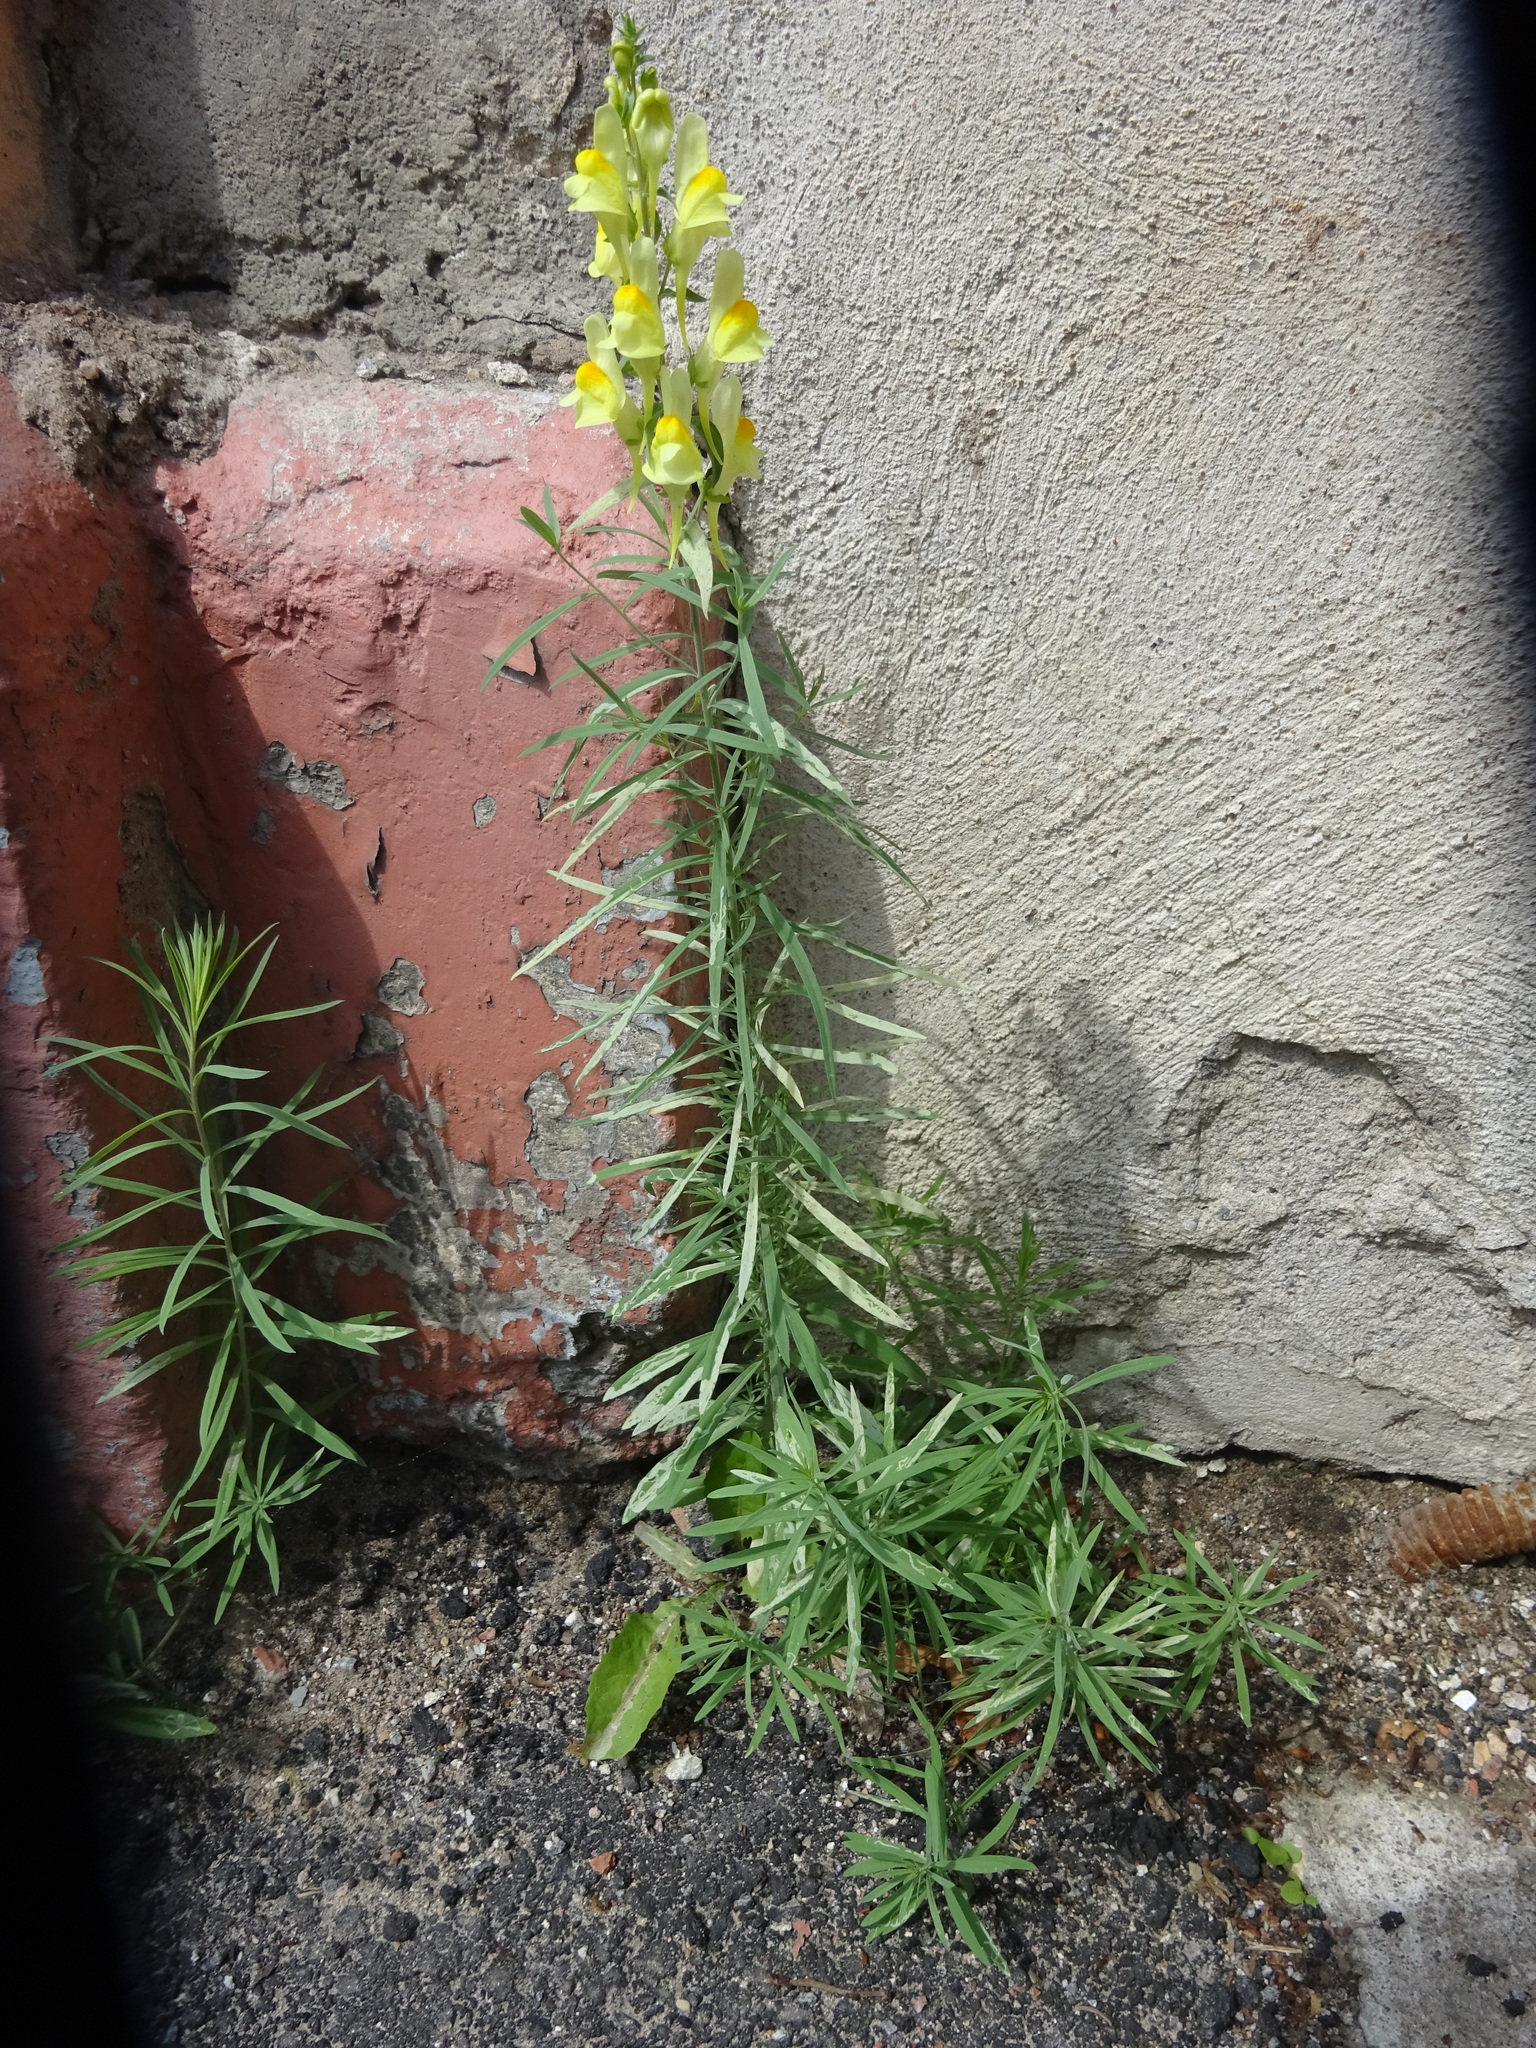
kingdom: Plantae
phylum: Tracheophyta
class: Magnoliopsida
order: Lamiales
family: Plantaginaceae
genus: Linaria
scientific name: Linaria vulgaris
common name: Butter and eggs
